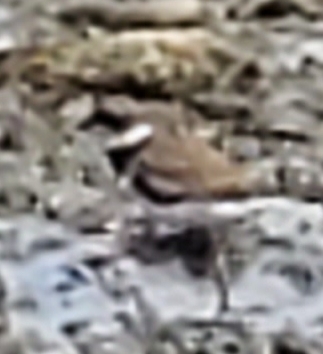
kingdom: Animalia
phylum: Chordata
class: Aves
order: Charadriiformes
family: Charadriidae
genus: Charadrius
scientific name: Charadrius semipalmatus
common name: Semipalmated plover
